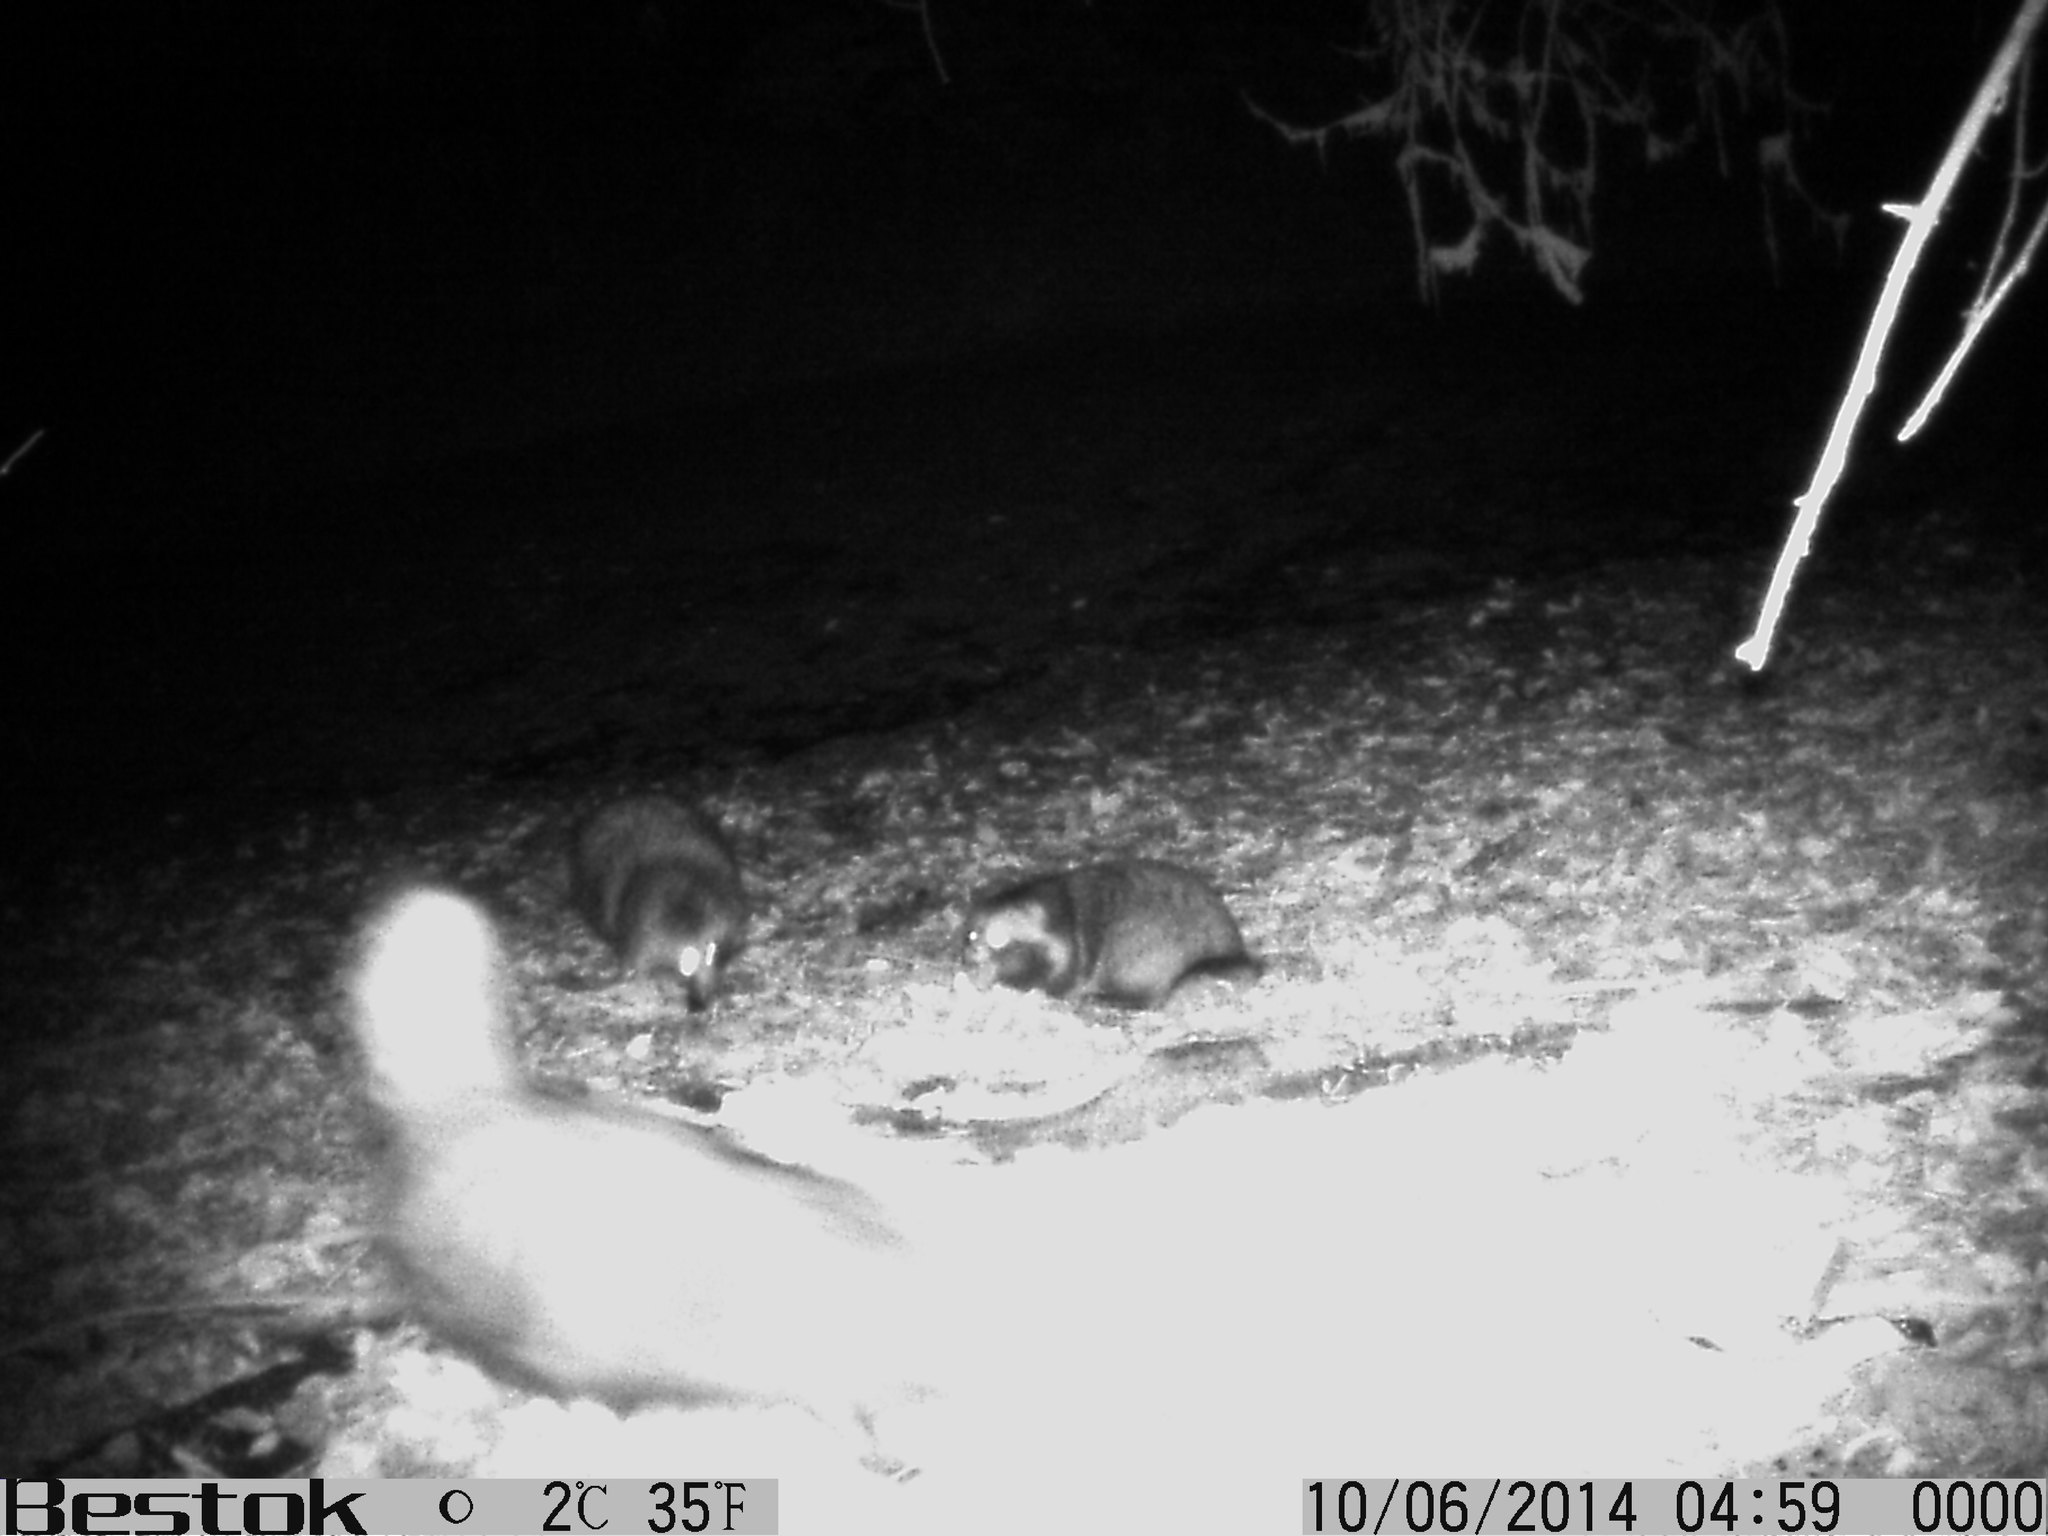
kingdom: Animalia
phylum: Chordata
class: Mammalia
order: Carnivora
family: Canidae
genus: Nyctereutes
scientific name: Nyctereutes procyonoides
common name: Raccoon dog
